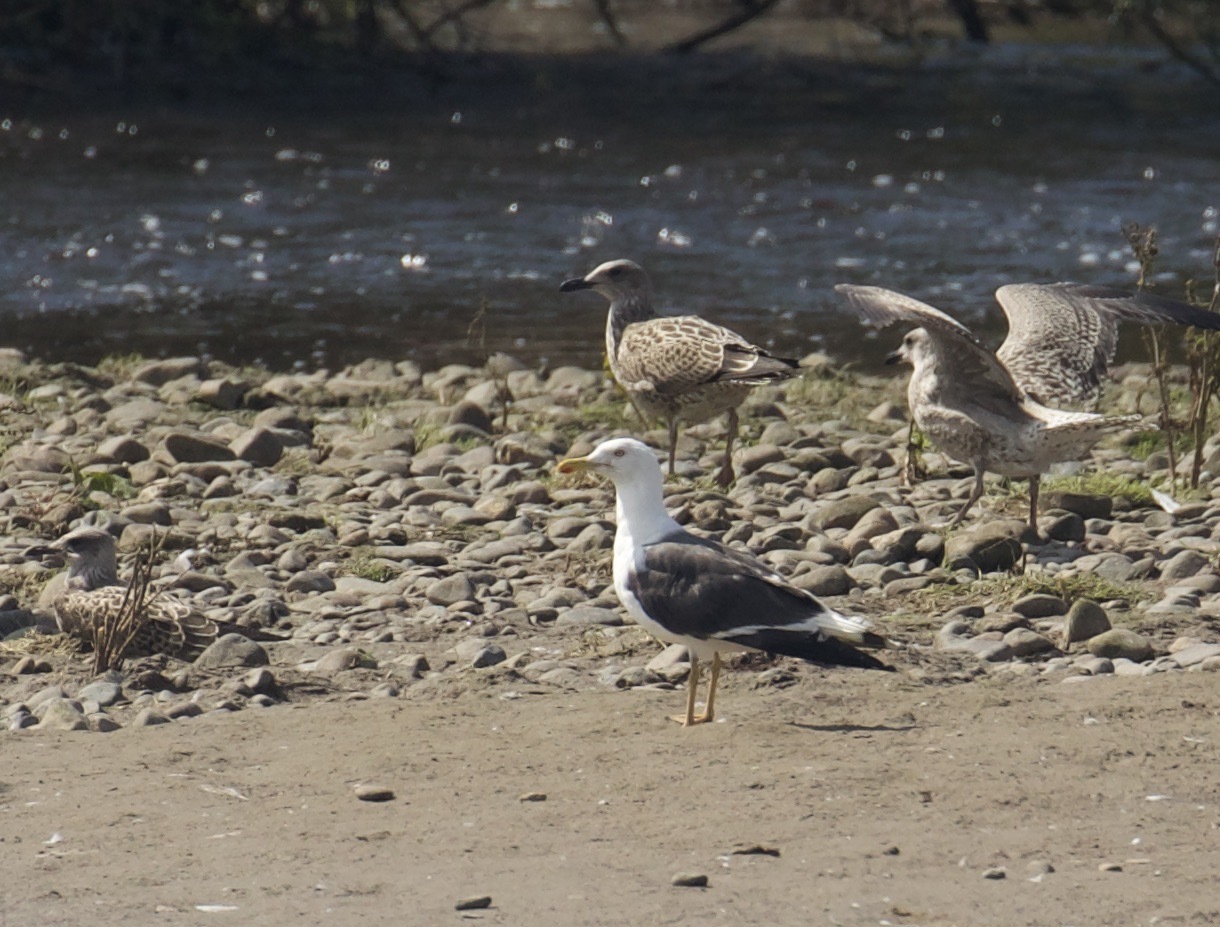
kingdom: Animalia
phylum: Chordata
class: Aves
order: Charadriiformes
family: Laridae
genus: Larus
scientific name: Larus fuscus
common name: Lesser black-backed gull
